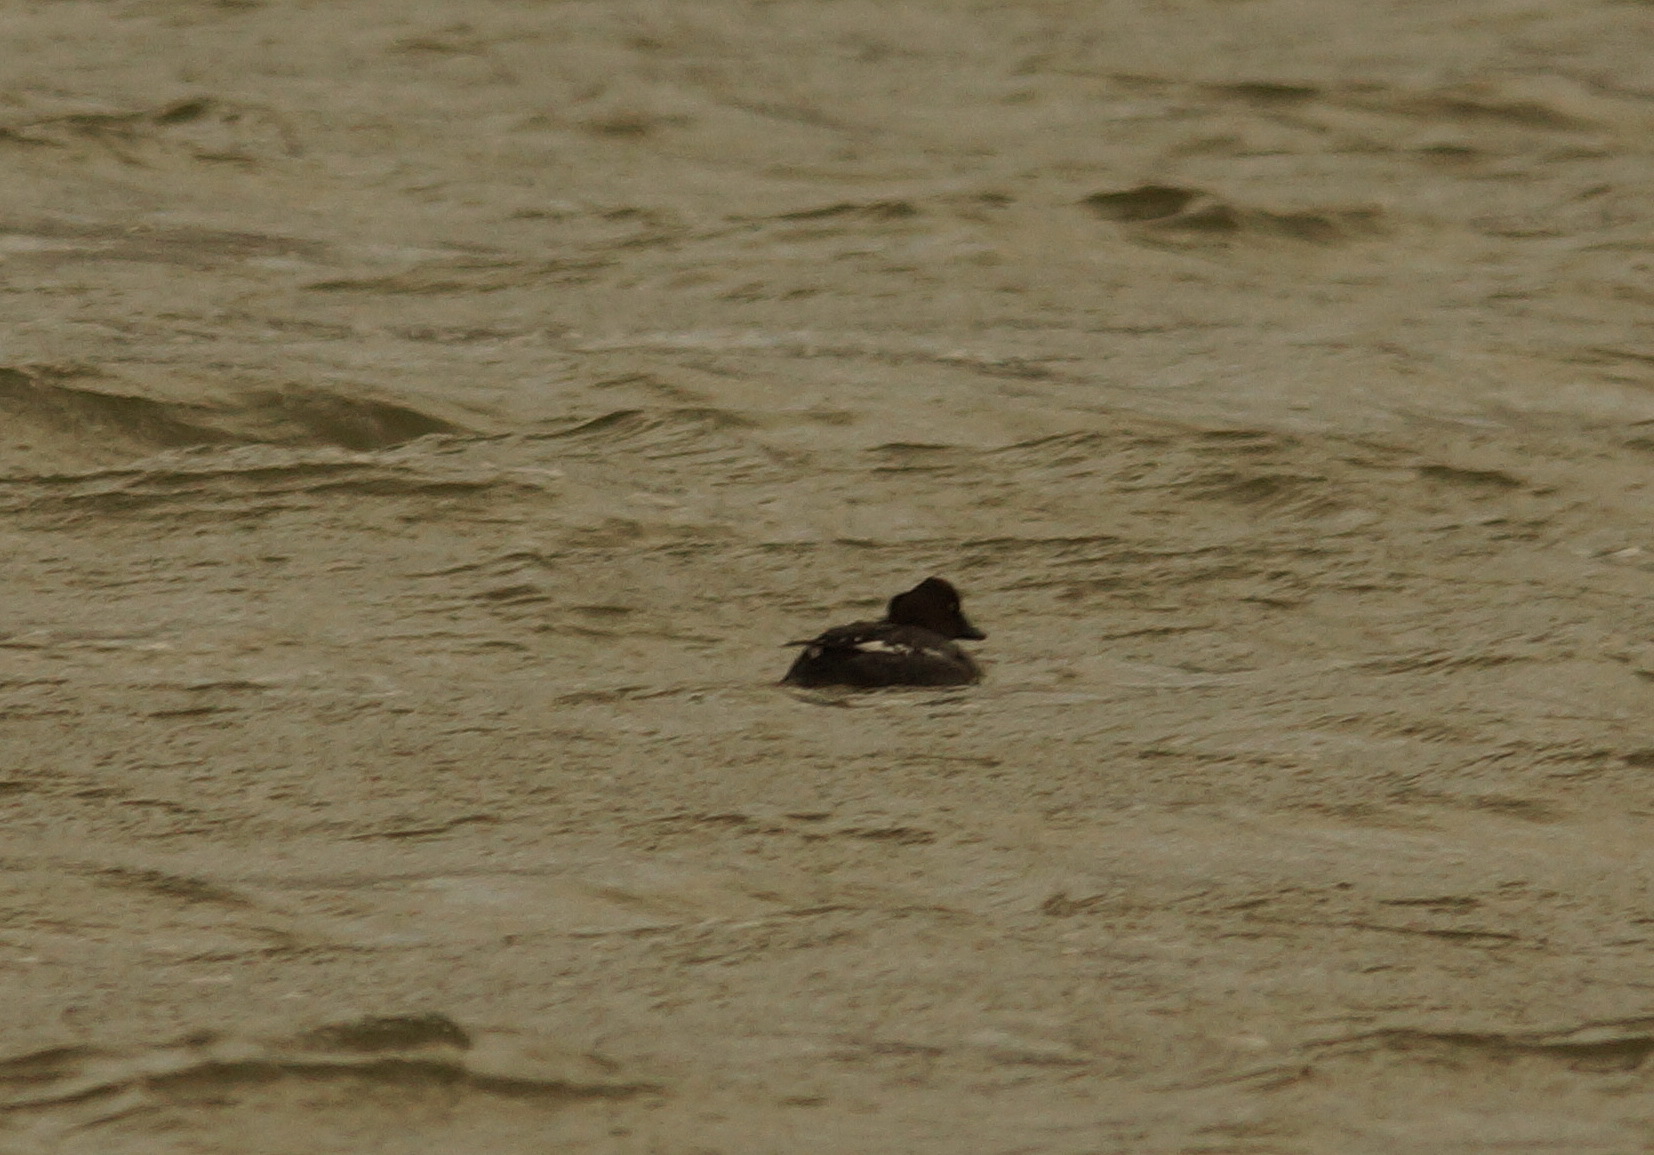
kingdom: Animalia
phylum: Chordata
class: Aves
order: Anseriformes
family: Anatidae
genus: Bucephala
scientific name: Bucephala clangula
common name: Common goldeneye
